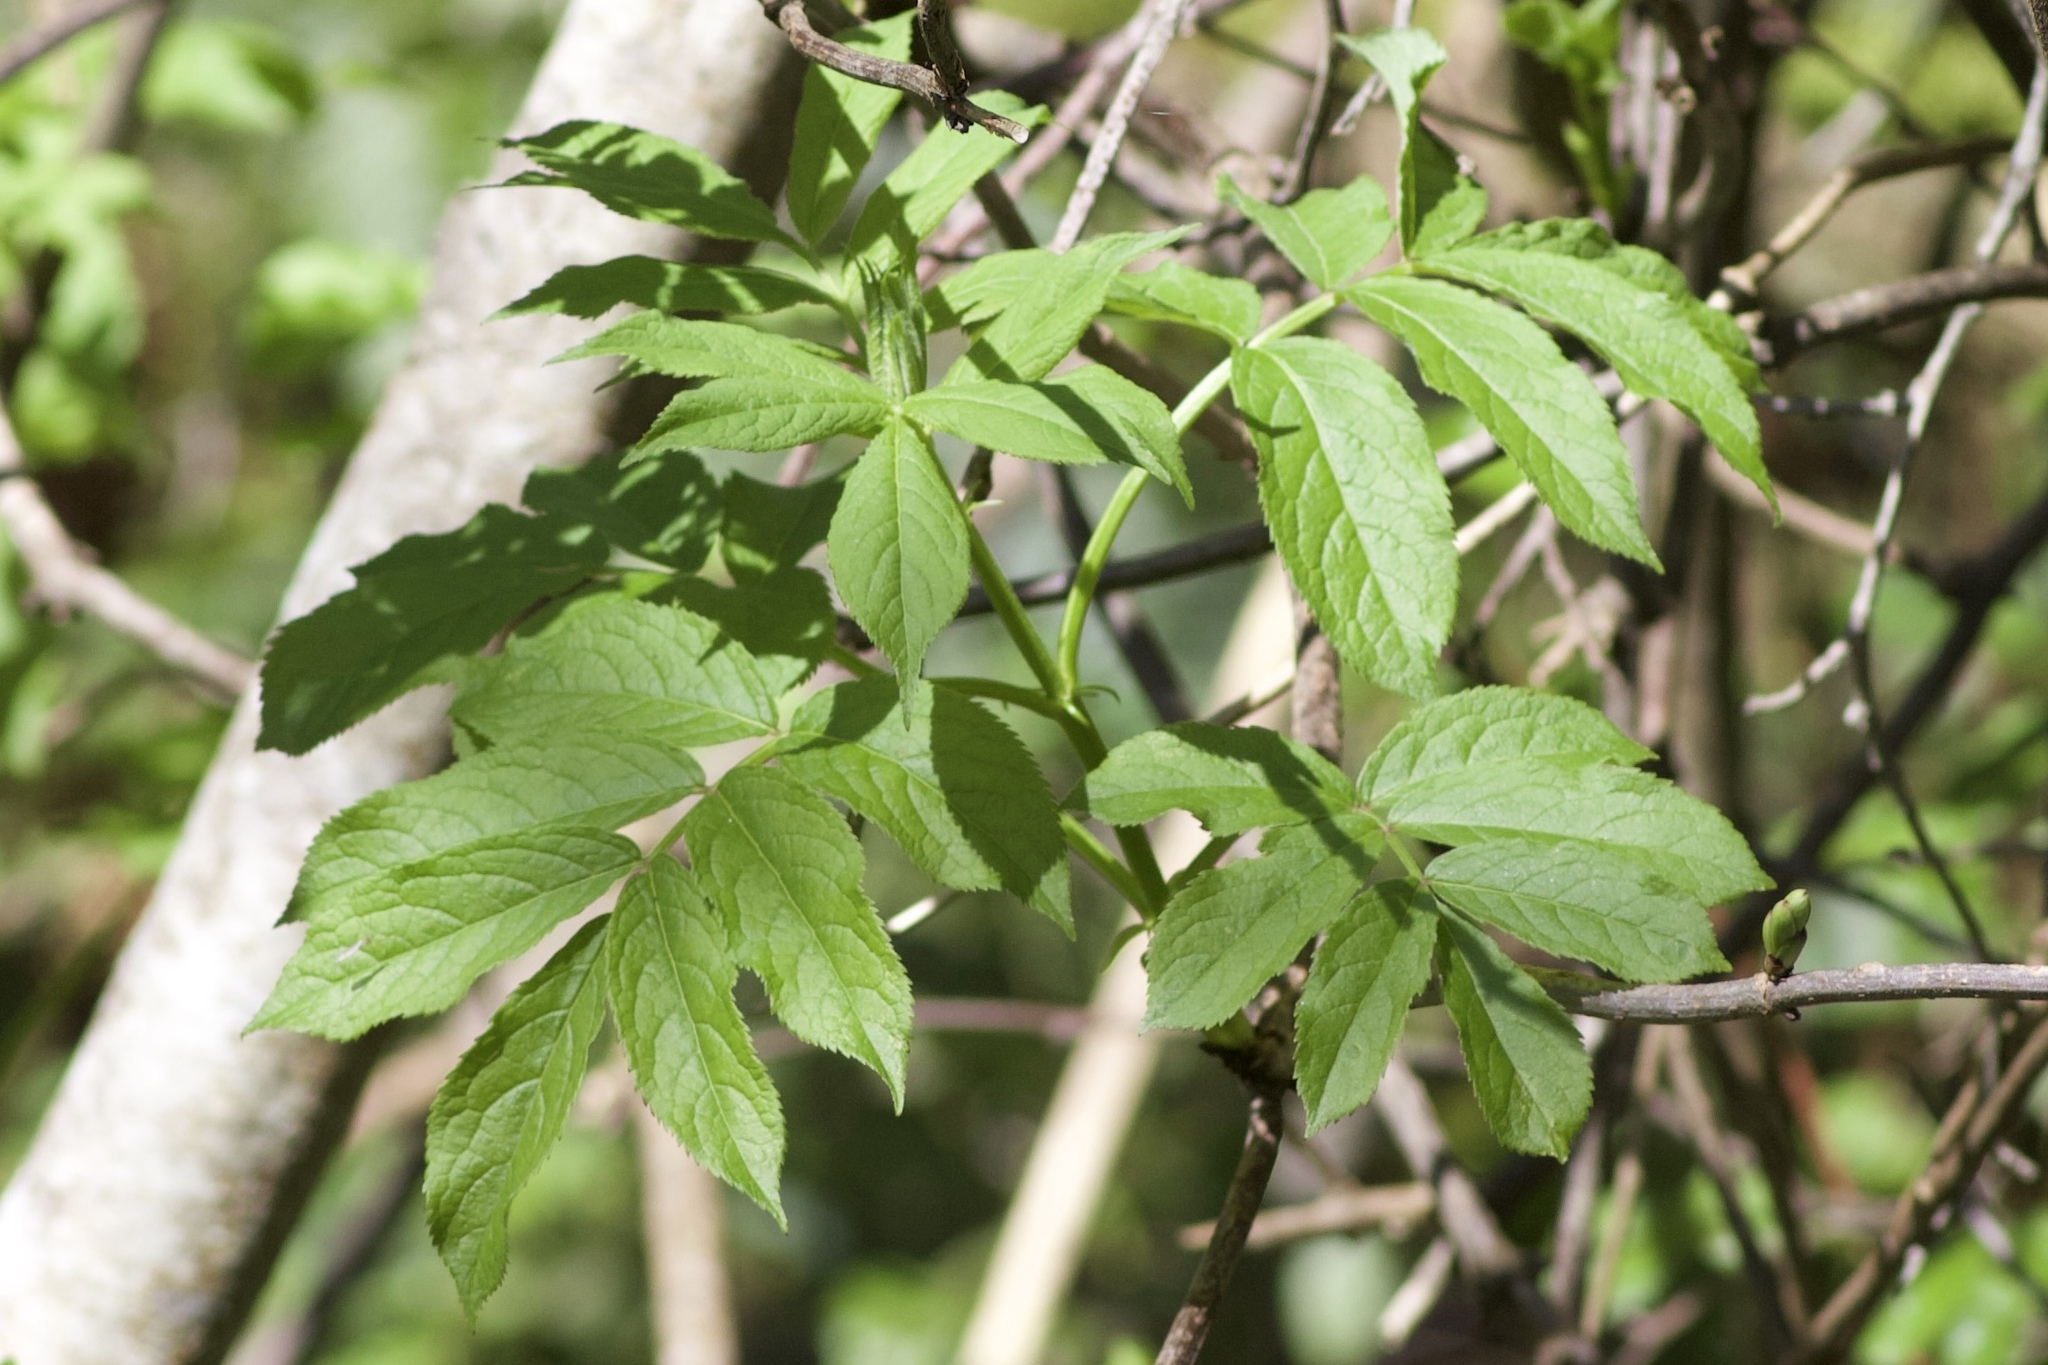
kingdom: Plantae
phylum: Tracheophyta
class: Magnoliopsida
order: Dipsacales
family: Viburnaceae
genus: Sambucus
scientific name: Sambucus racemosa
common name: Red-berried elder
